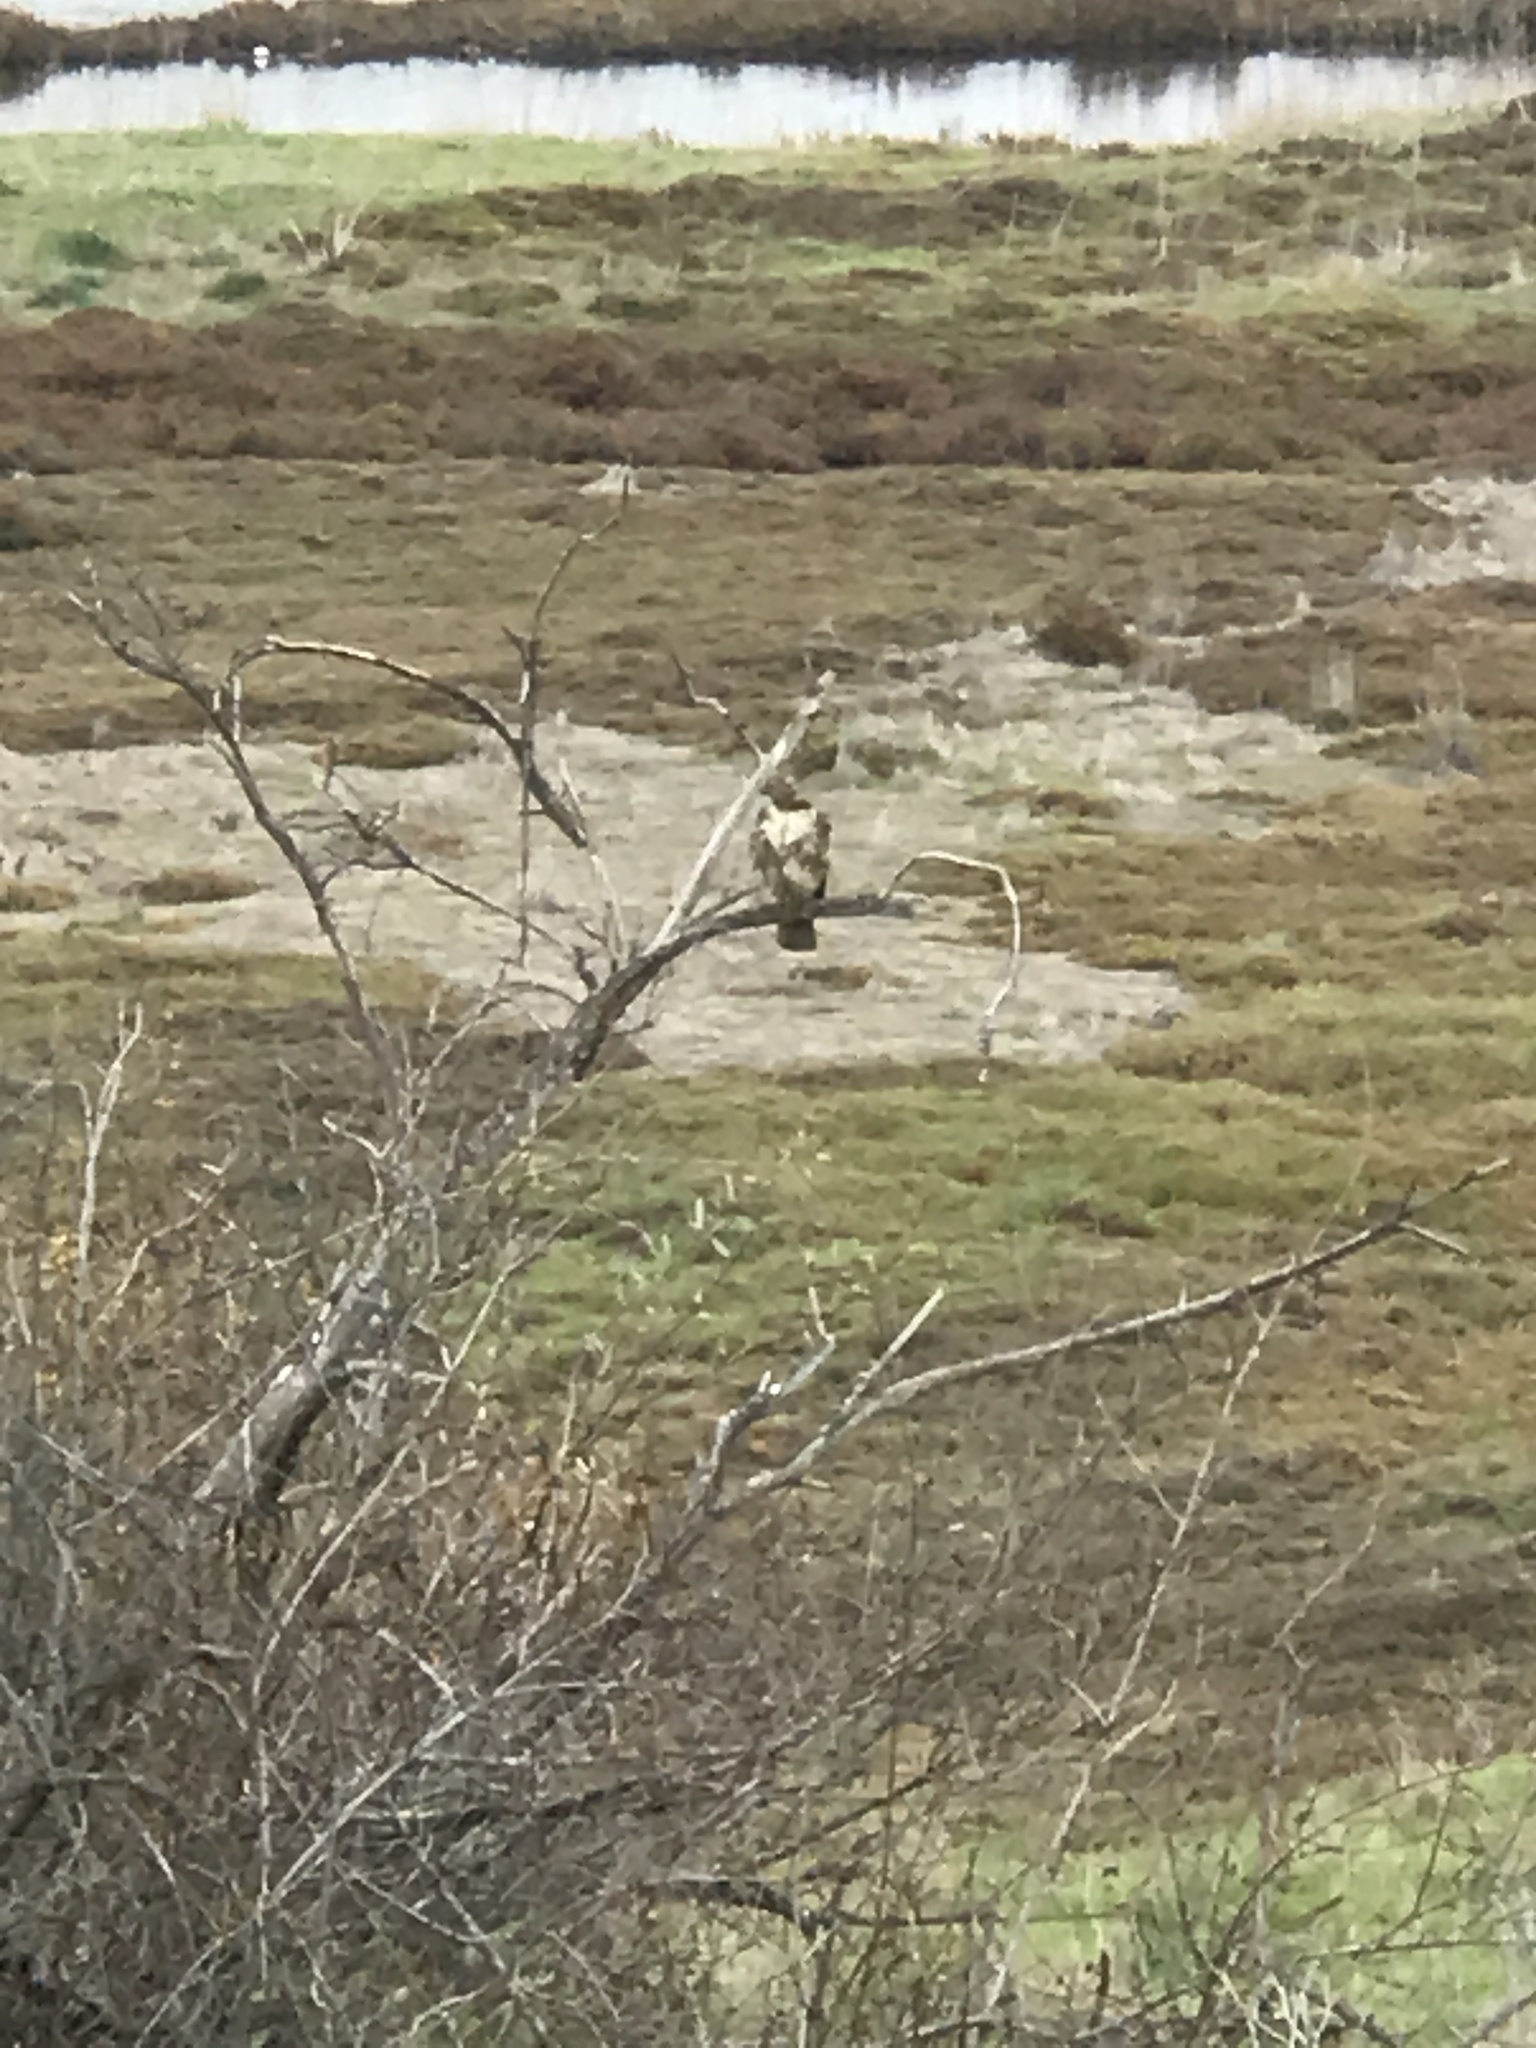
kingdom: Animalia
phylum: Chordata
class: Aves
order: Accipitriformes
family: Accipitridae
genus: Buteo
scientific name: Buteo jamaicensis
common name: Red-tailed hawk
